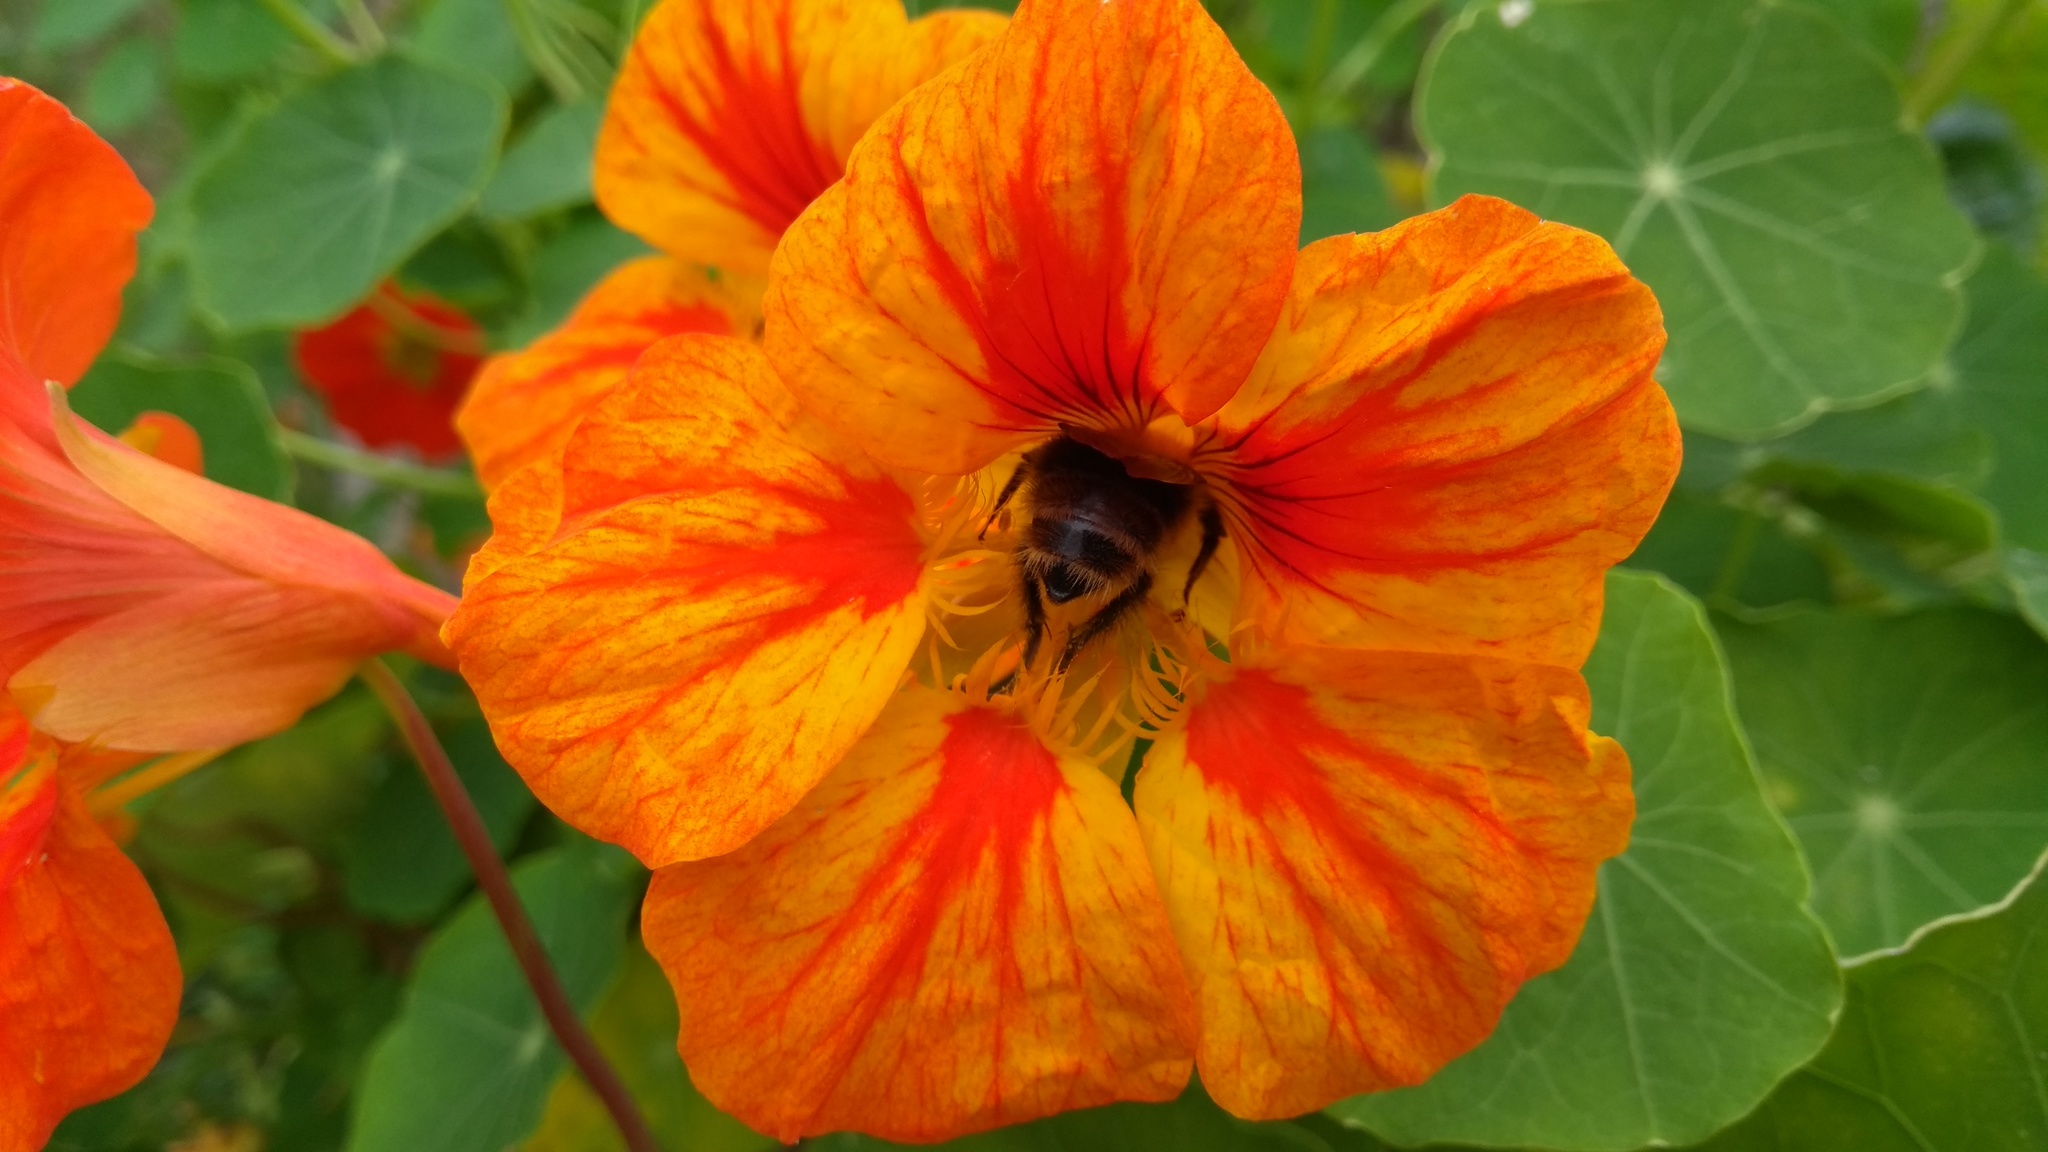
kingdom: Animalia
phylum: Arthropoda
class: Insecta
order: Hymenoptera
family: Apidae
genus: Bombus
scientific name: Bombus pascuorum
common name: Common carder bee
